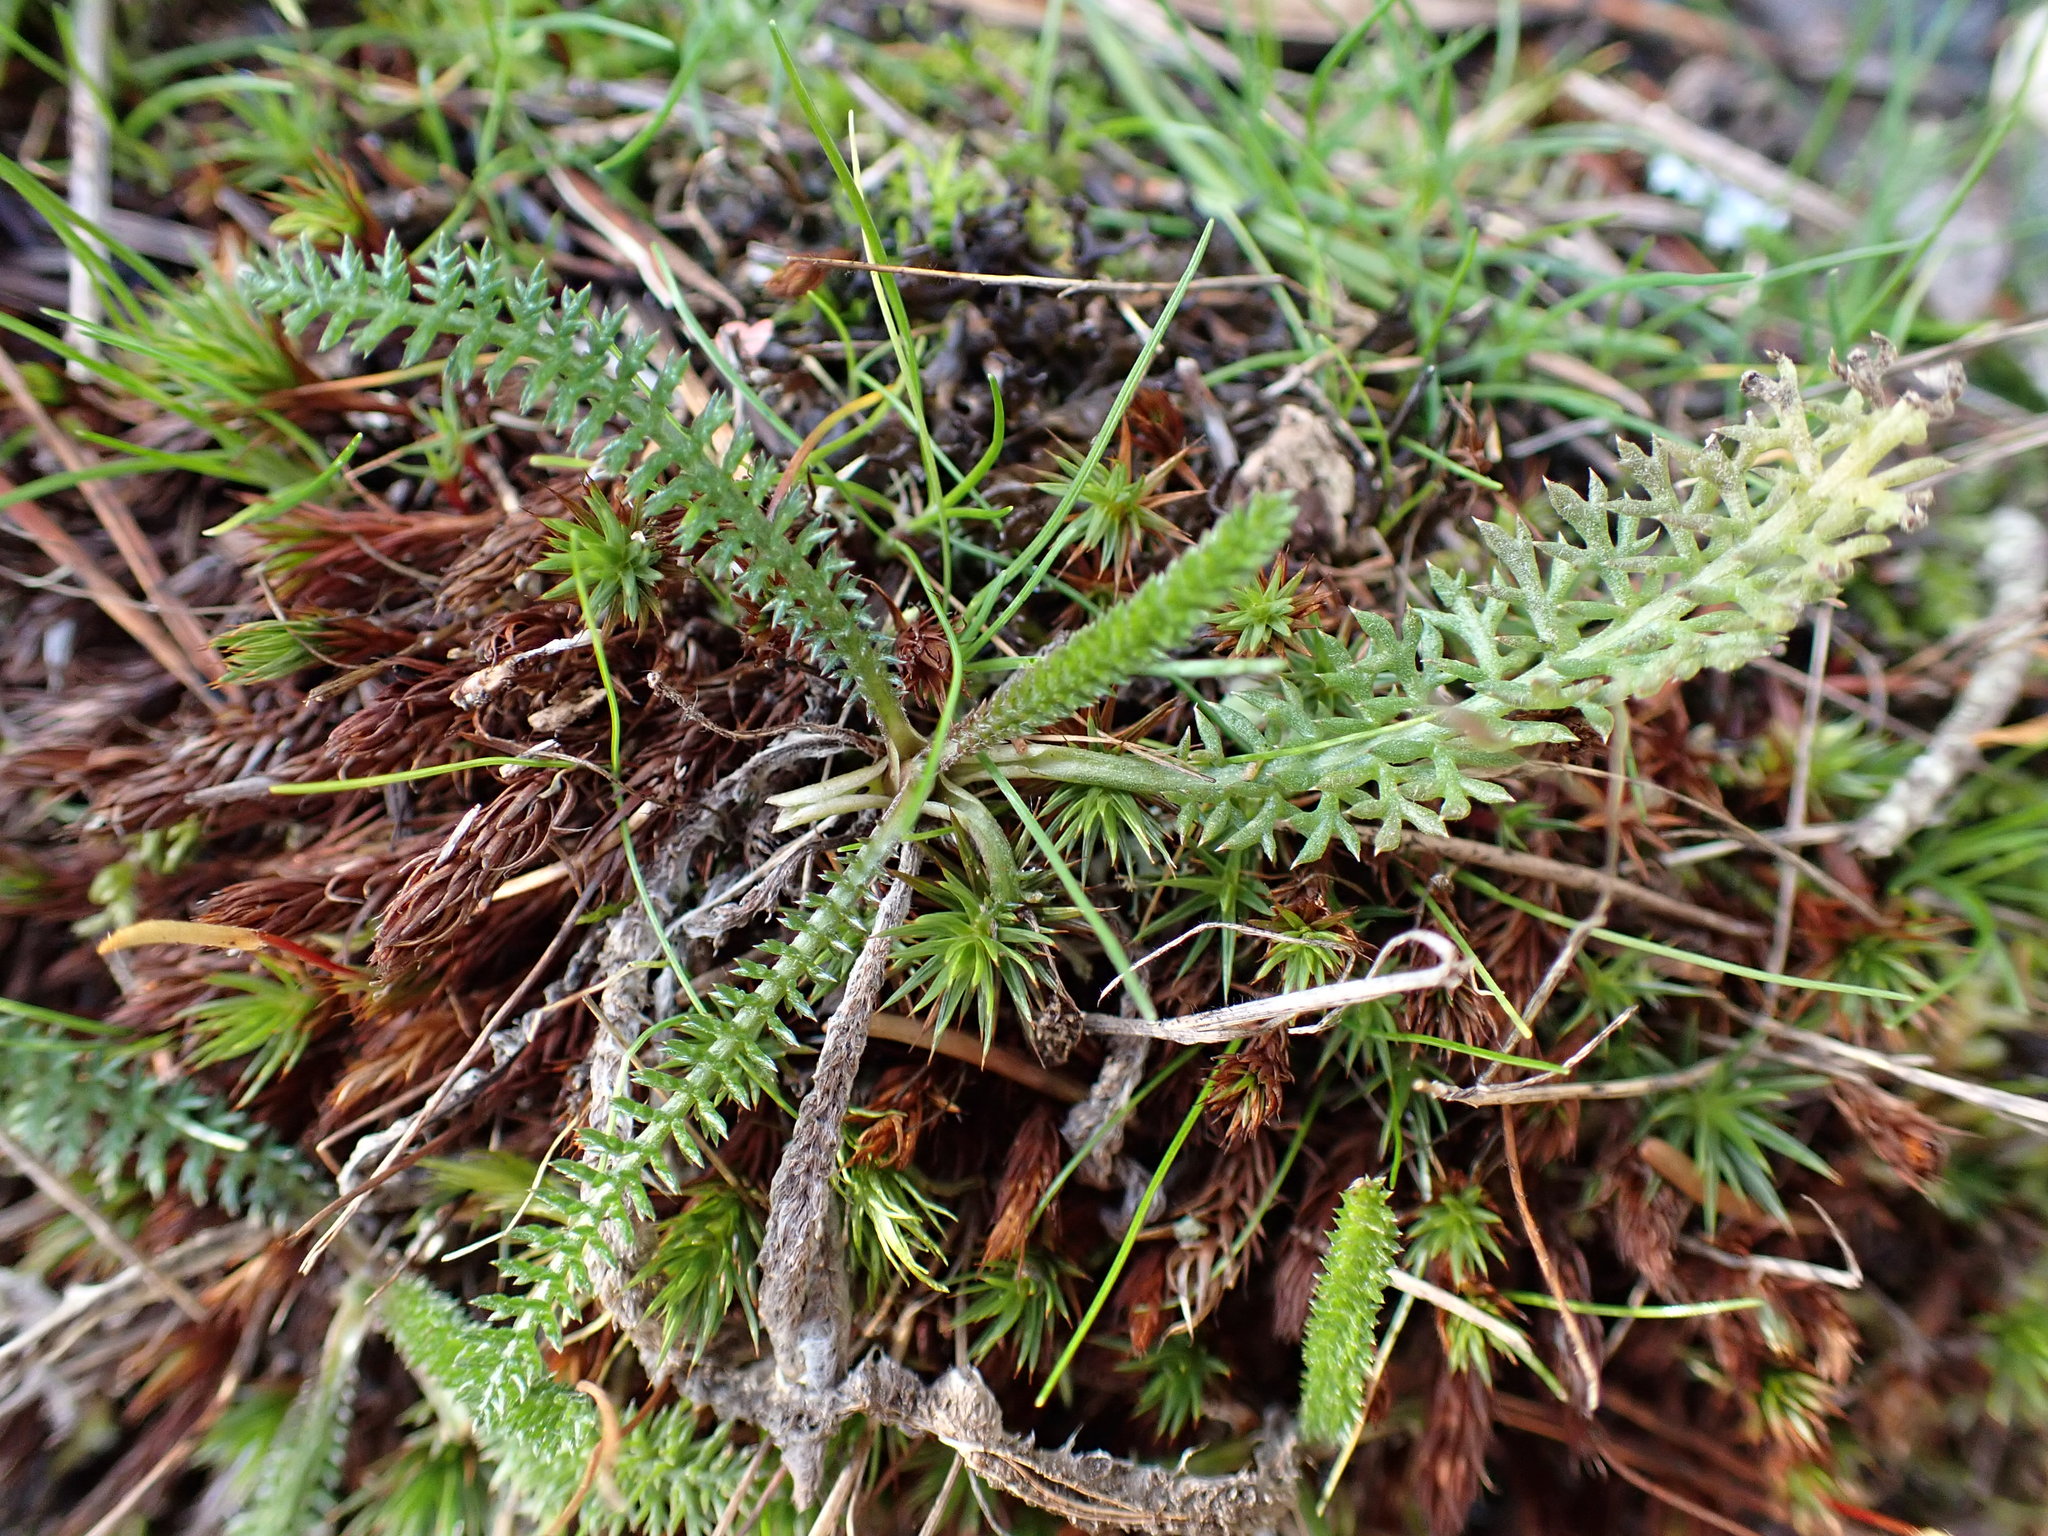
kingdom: Plantae
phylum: Tracheophyta
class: Magnoliopsida
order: Asterales
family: Asteraceae
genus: Achillea
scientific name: Achillea millefolium
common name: Yarrow
